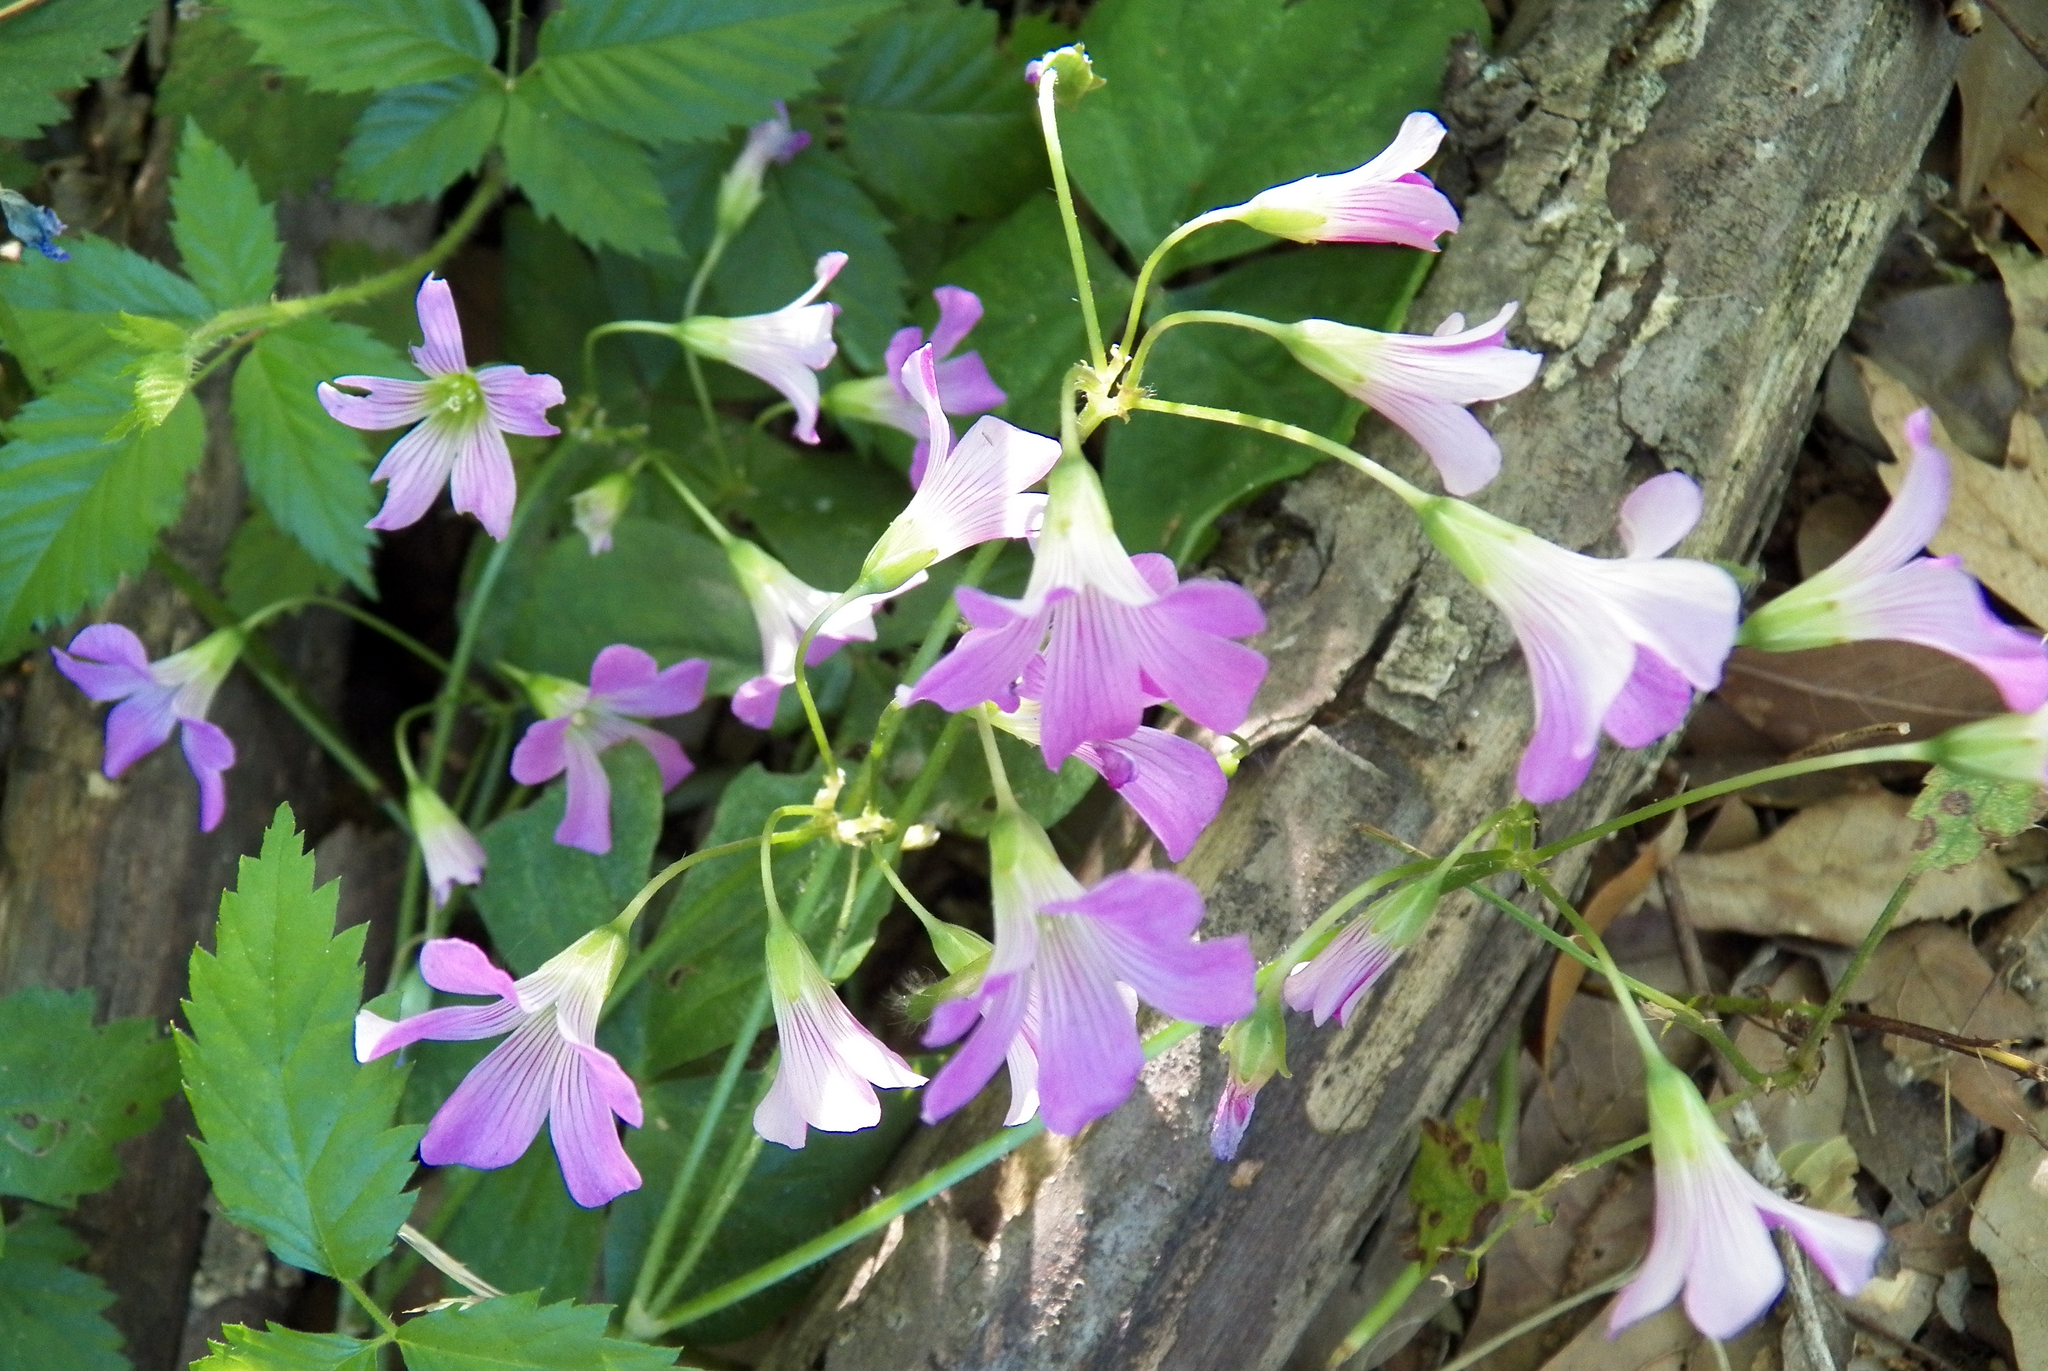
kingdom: Plantae
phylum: Tracheophyta
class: Magnoliopsida
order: Oxalidales
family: Oxalidaceae
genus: Oxalis
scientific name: Oxalis debilis
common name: Large-flowered pink-sorrel
